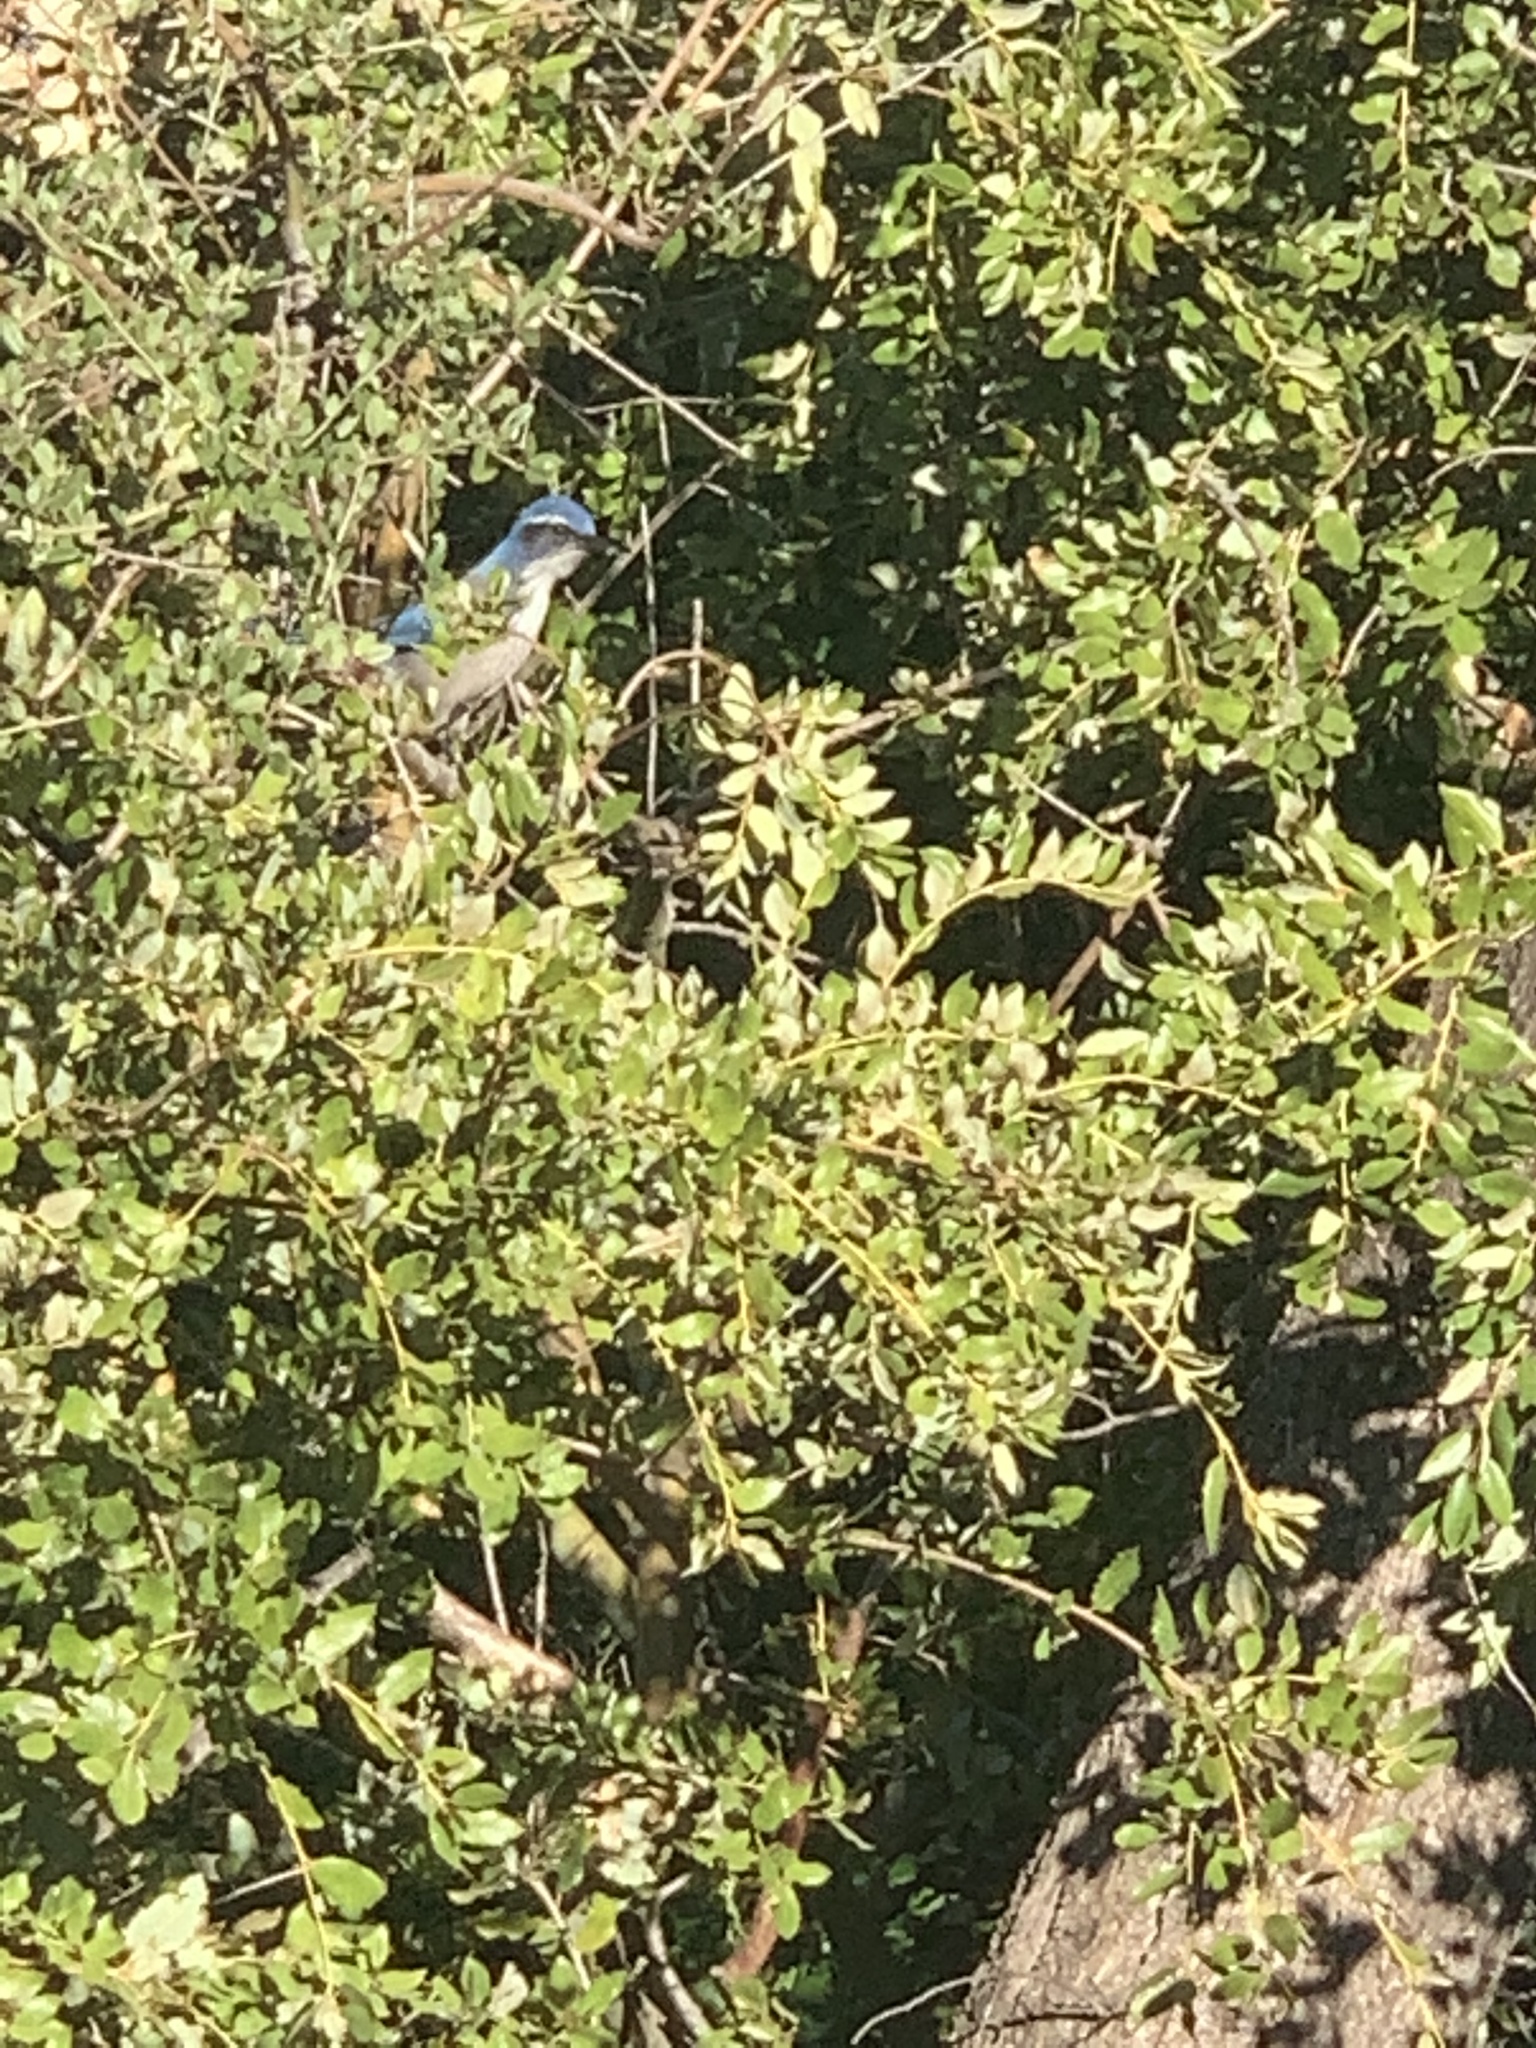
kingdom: Animalia
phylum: Chordata
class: Aves
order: Passeriformes
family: Corvidae
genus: Aphelocoma
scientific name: Aphelocoma californica
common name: California scrub-jay
